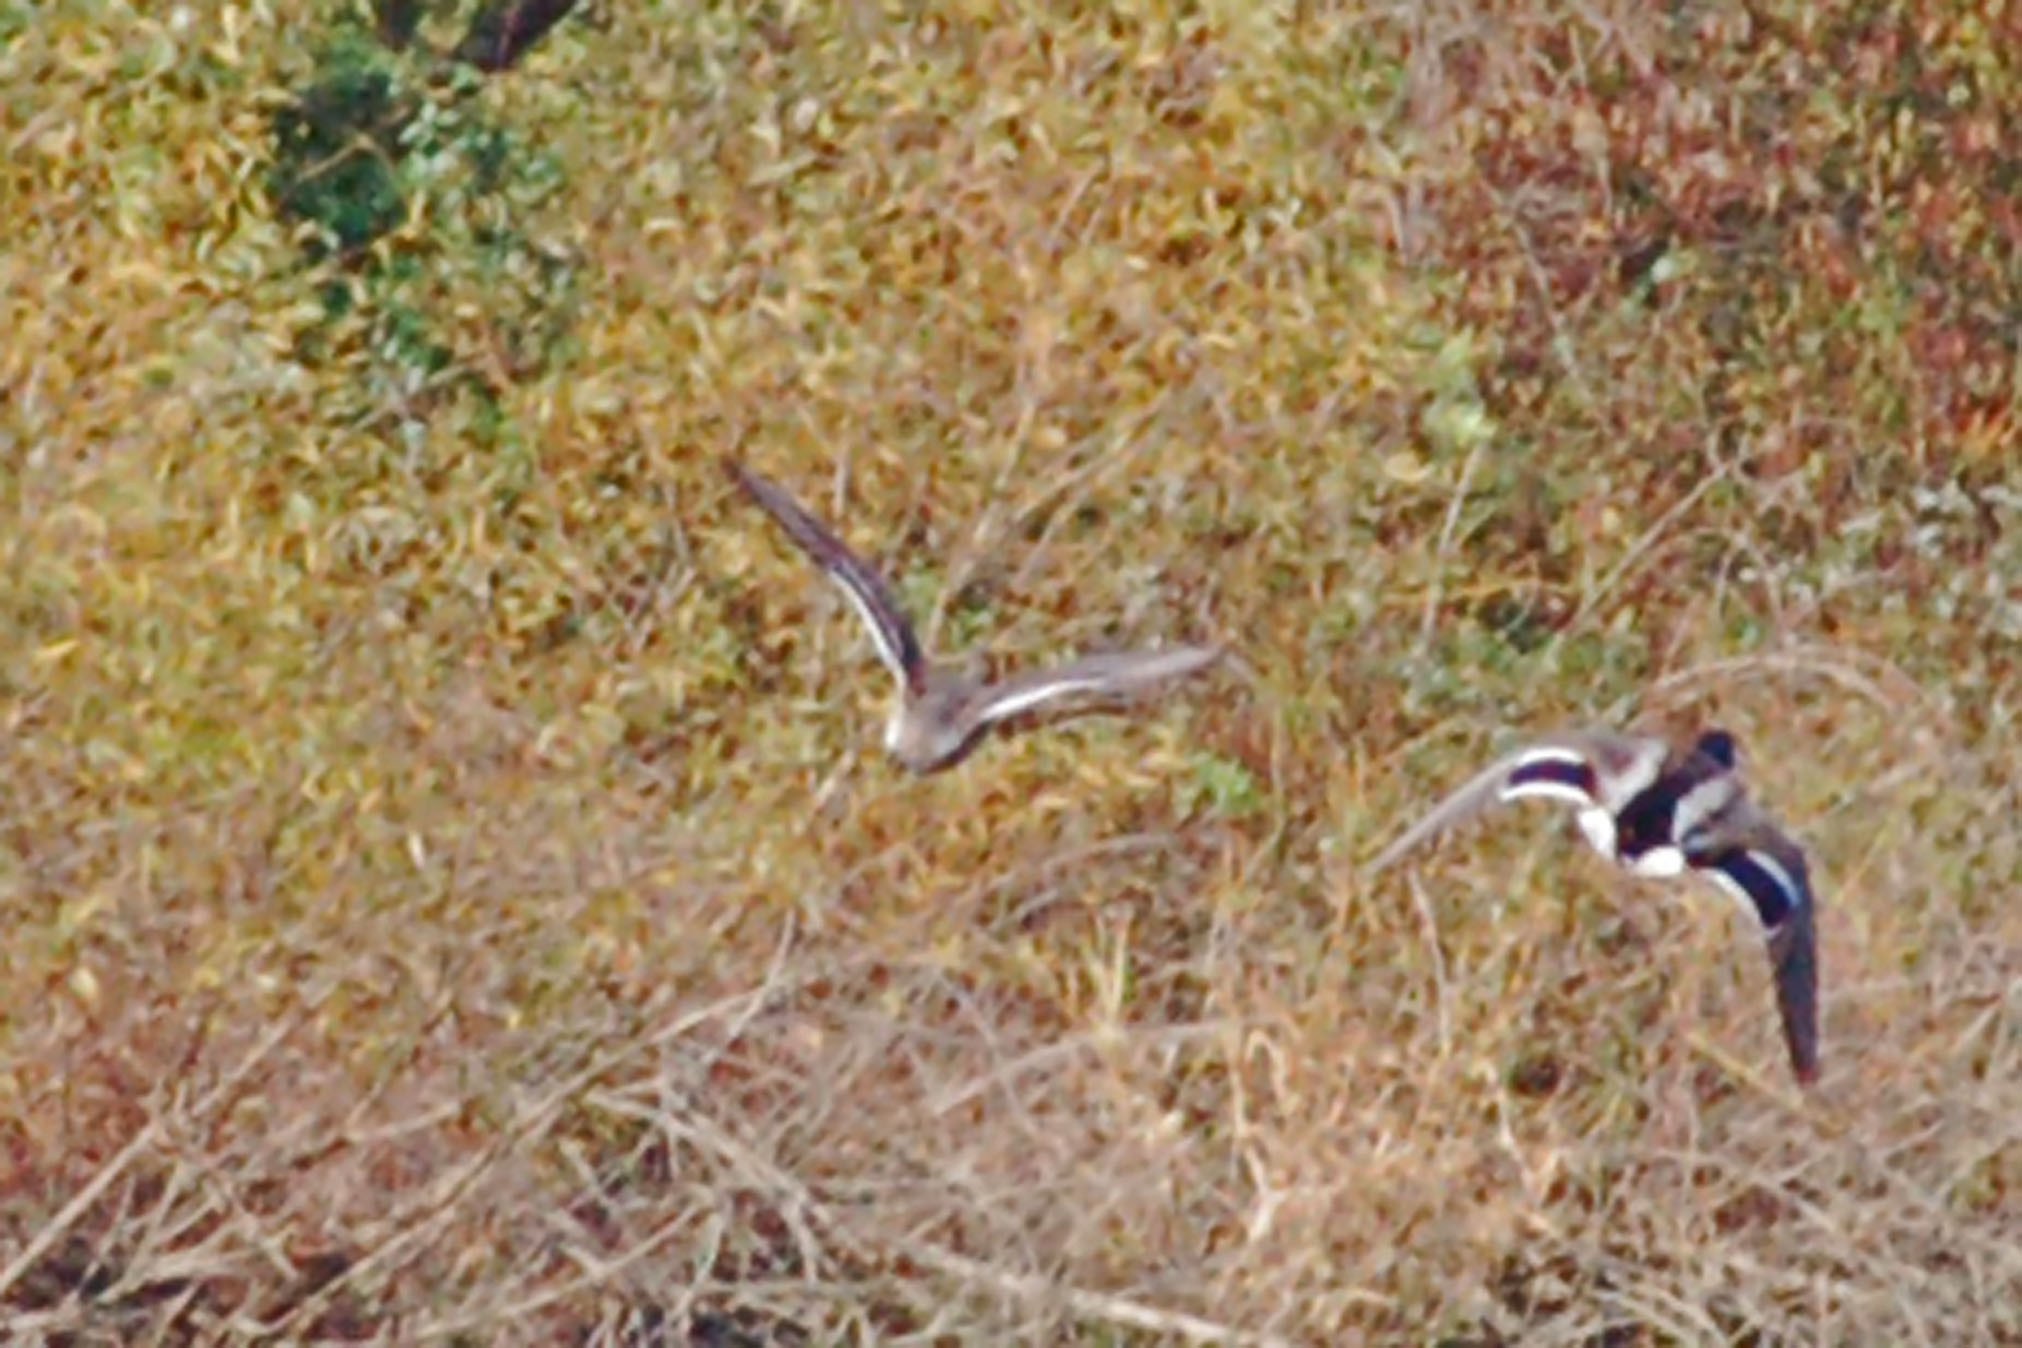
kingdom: Animalia
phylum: Chordata
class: Aves
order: Anseriformes
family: Anatidae
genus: Anas
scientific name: Anas acuta
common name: Northern pintail
